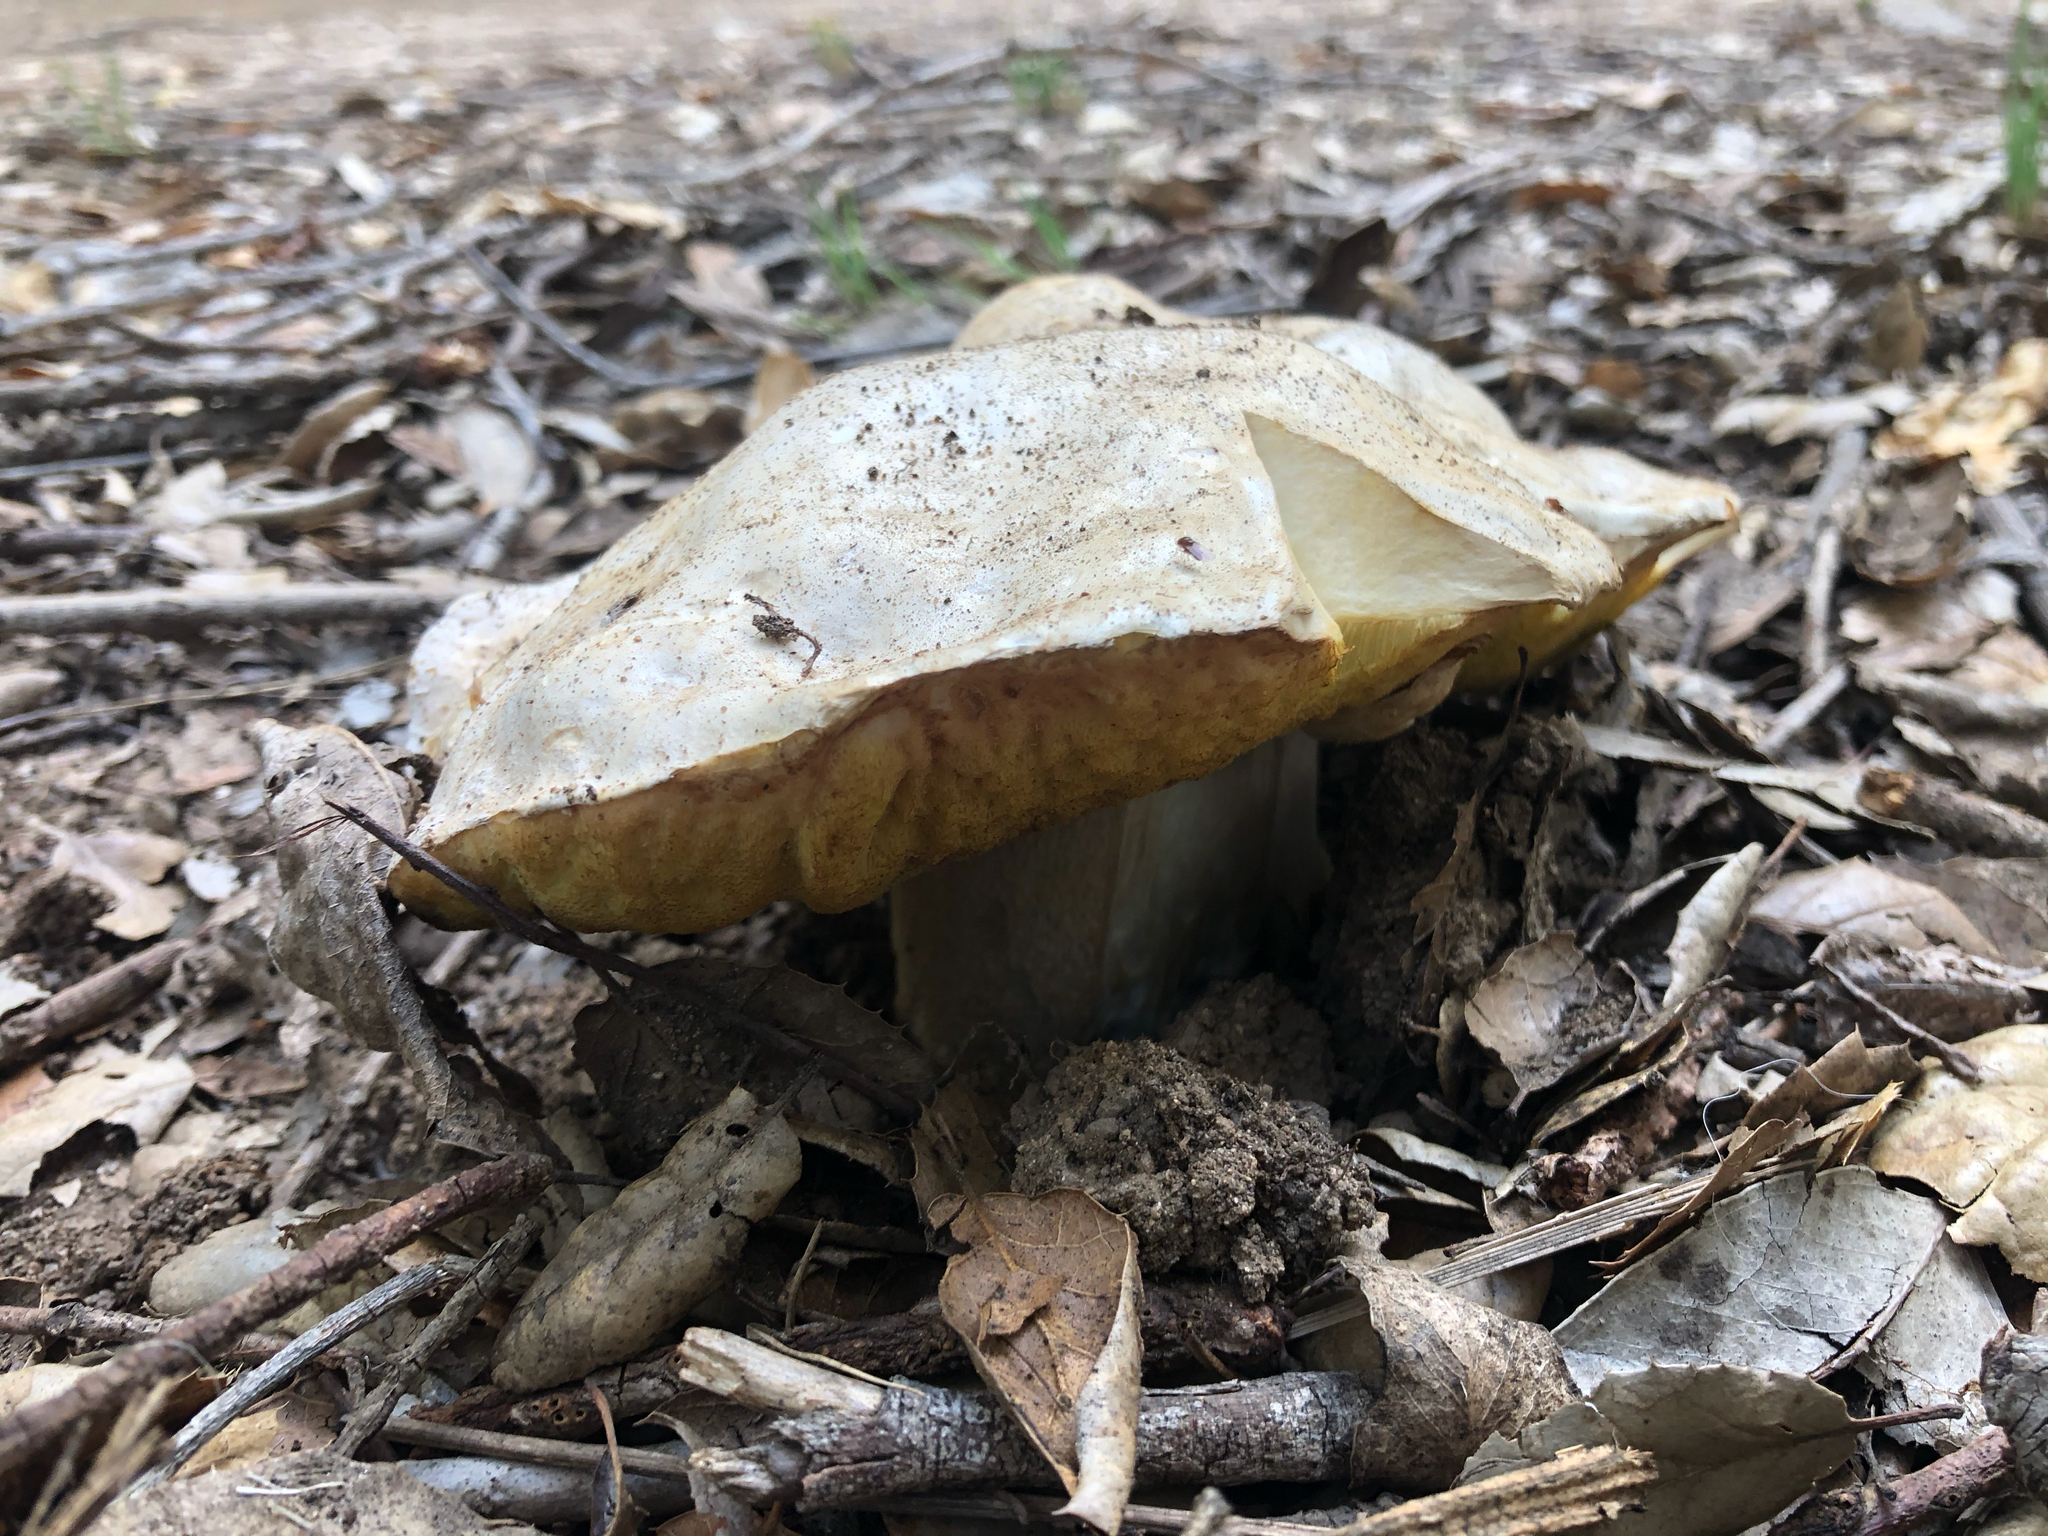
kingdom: Fungi
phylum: Basidiomycota
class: Agaricomycetes
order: Boletales
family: Boletaceae
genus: Boletus
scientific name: Boletus barrowsii
